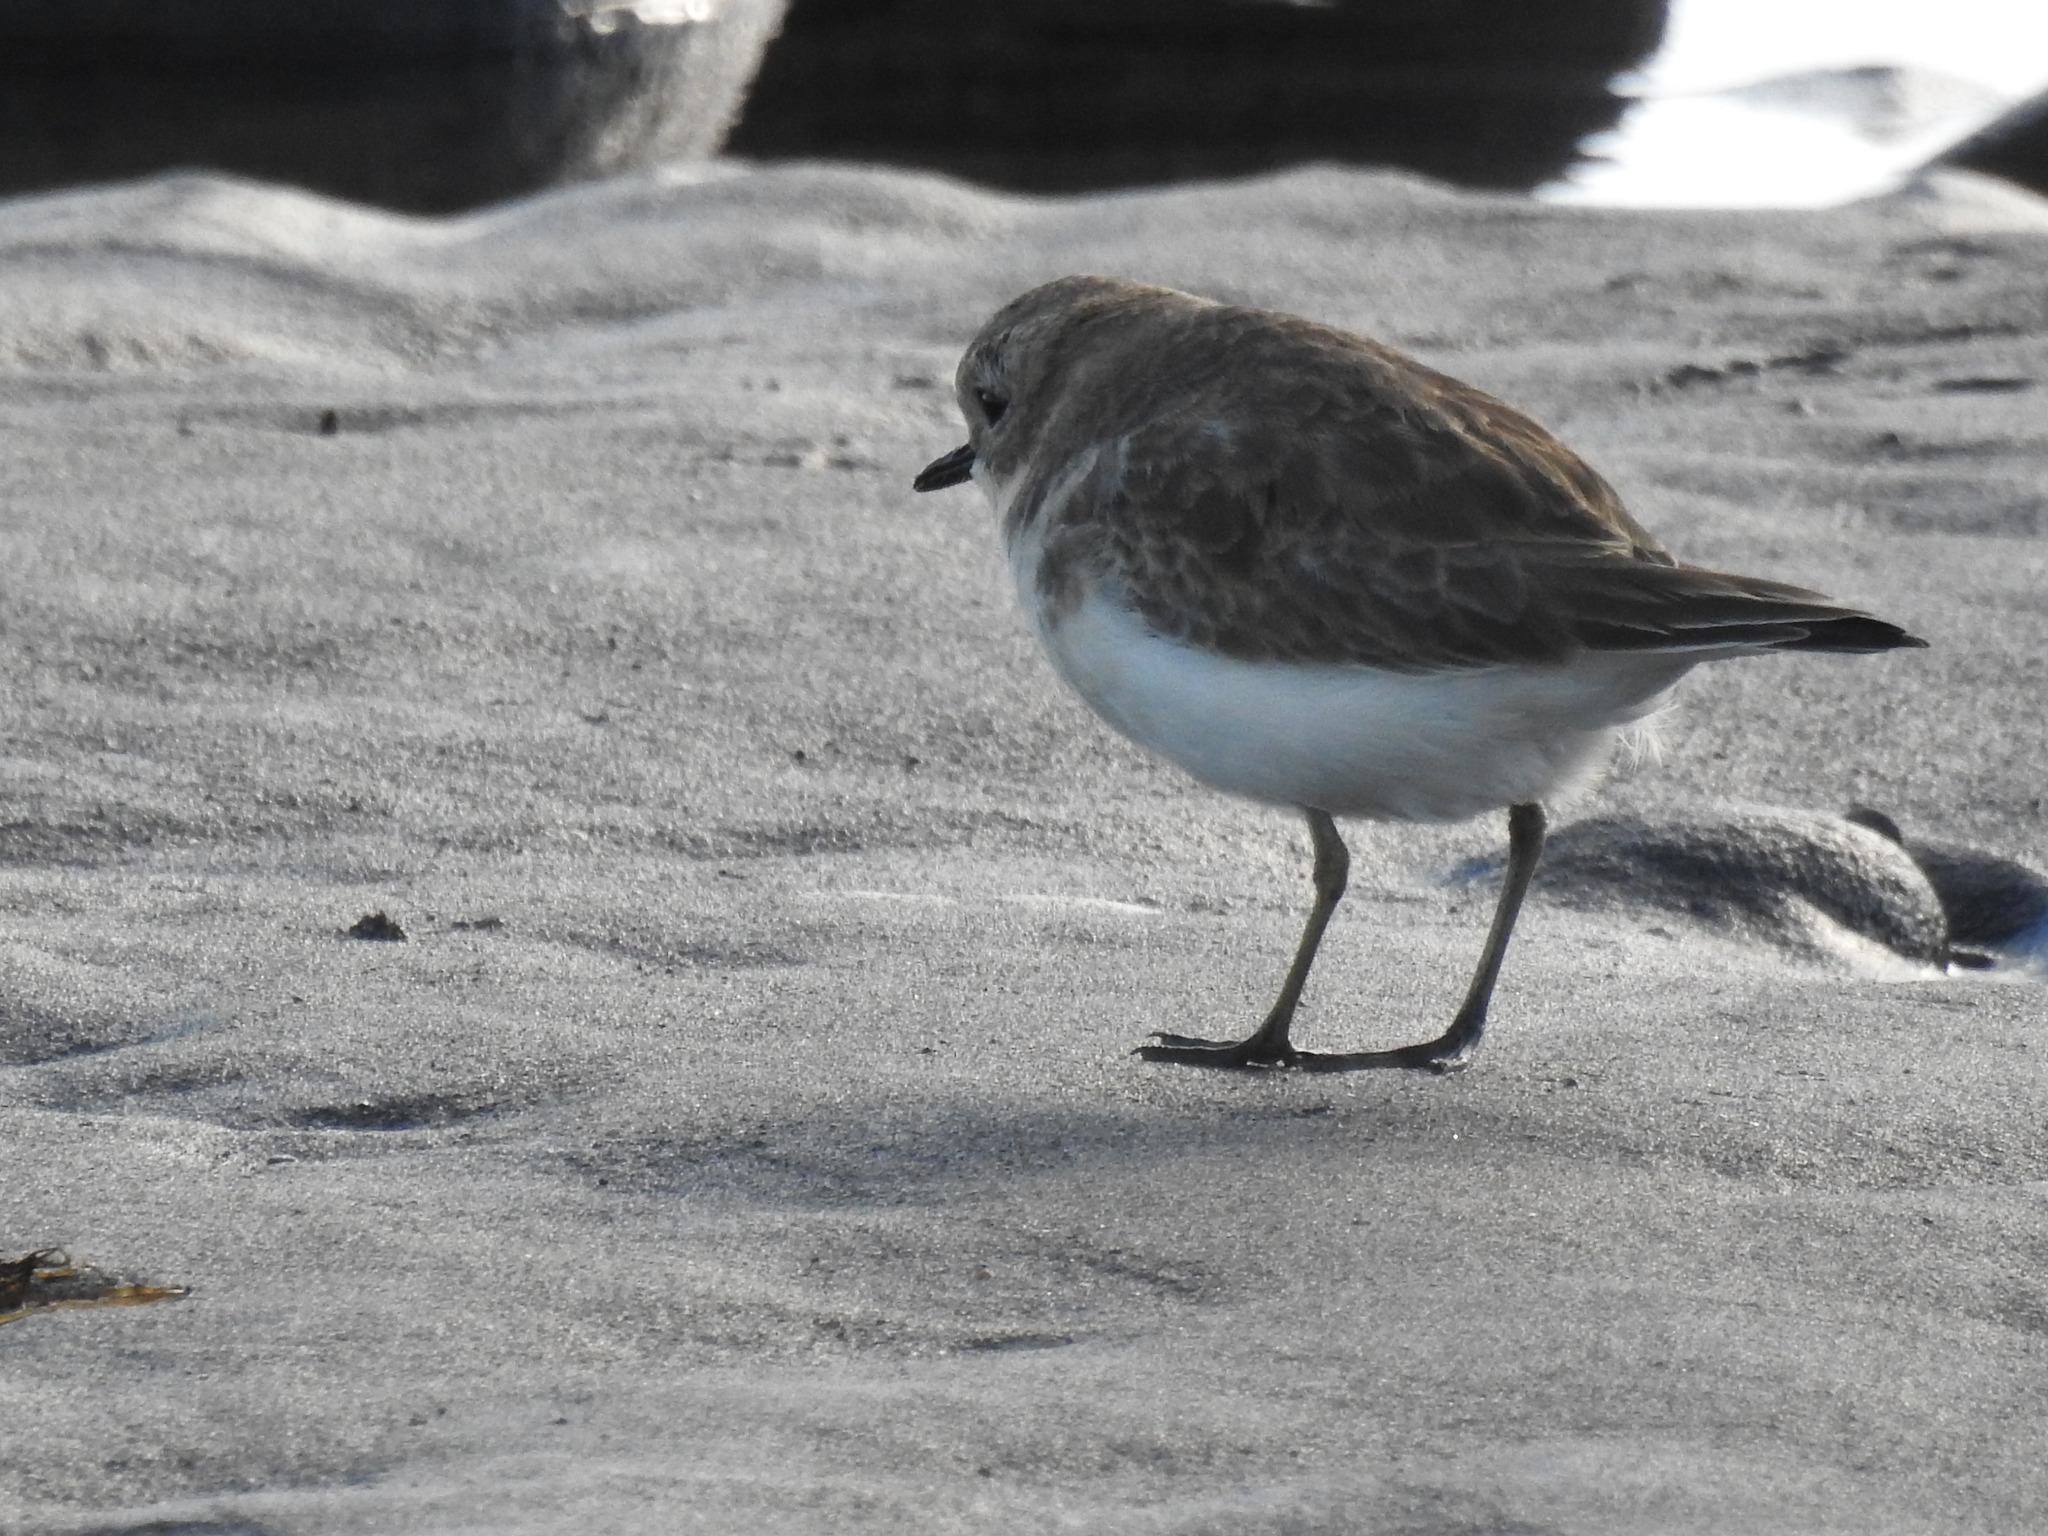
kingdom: Animalia
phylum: Chordata
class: Aves
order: Charadriiformes
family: Charadriidae
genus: Anarhynchus
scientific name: Anarhynchus
